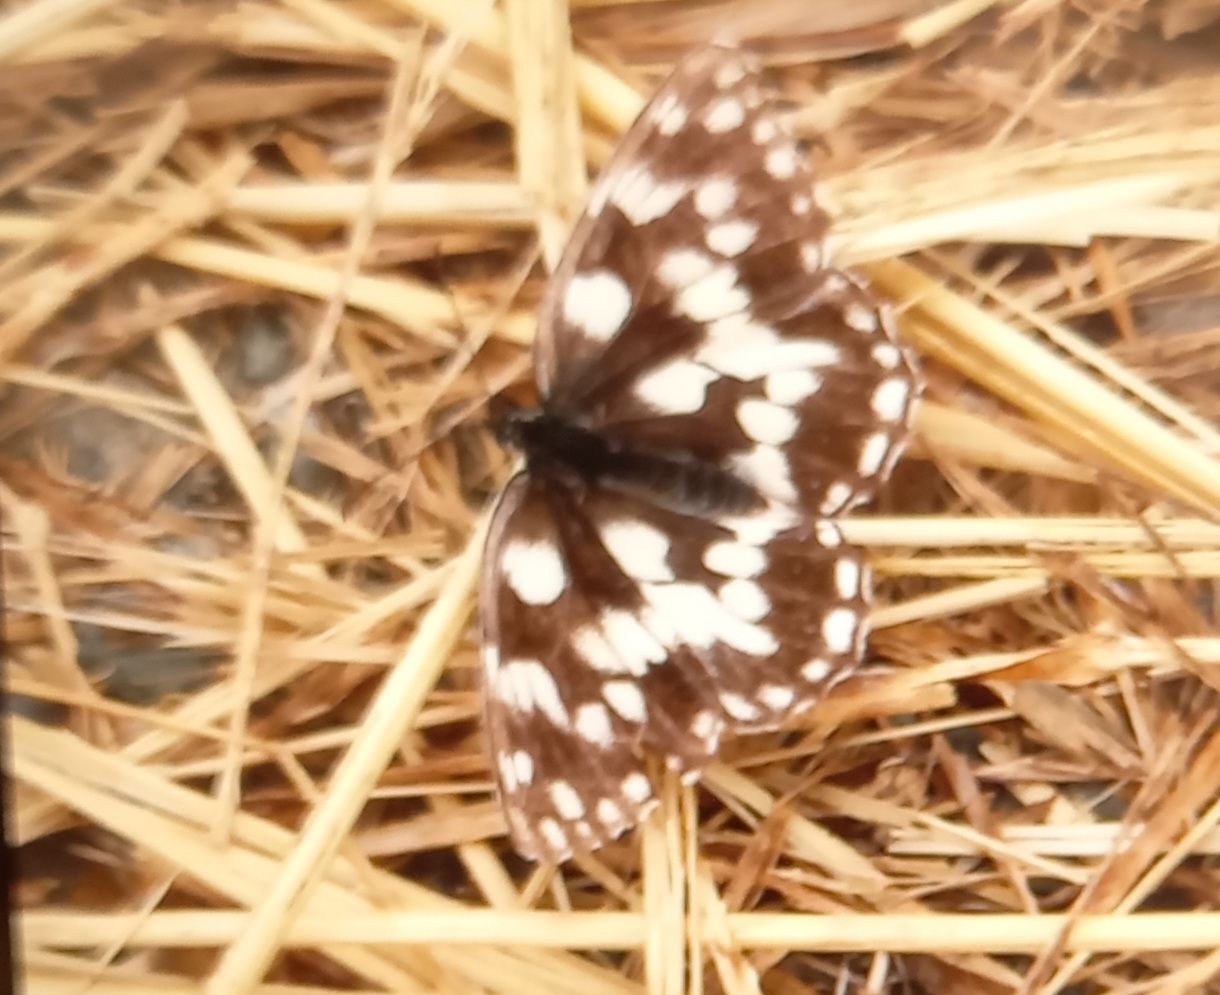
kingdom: Animalia
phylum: Arthropoda
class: Insecta
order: Lepidoptera
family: Nymphalidae
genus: Melanargia
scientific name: Melanargia galathea
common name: Marbled white
